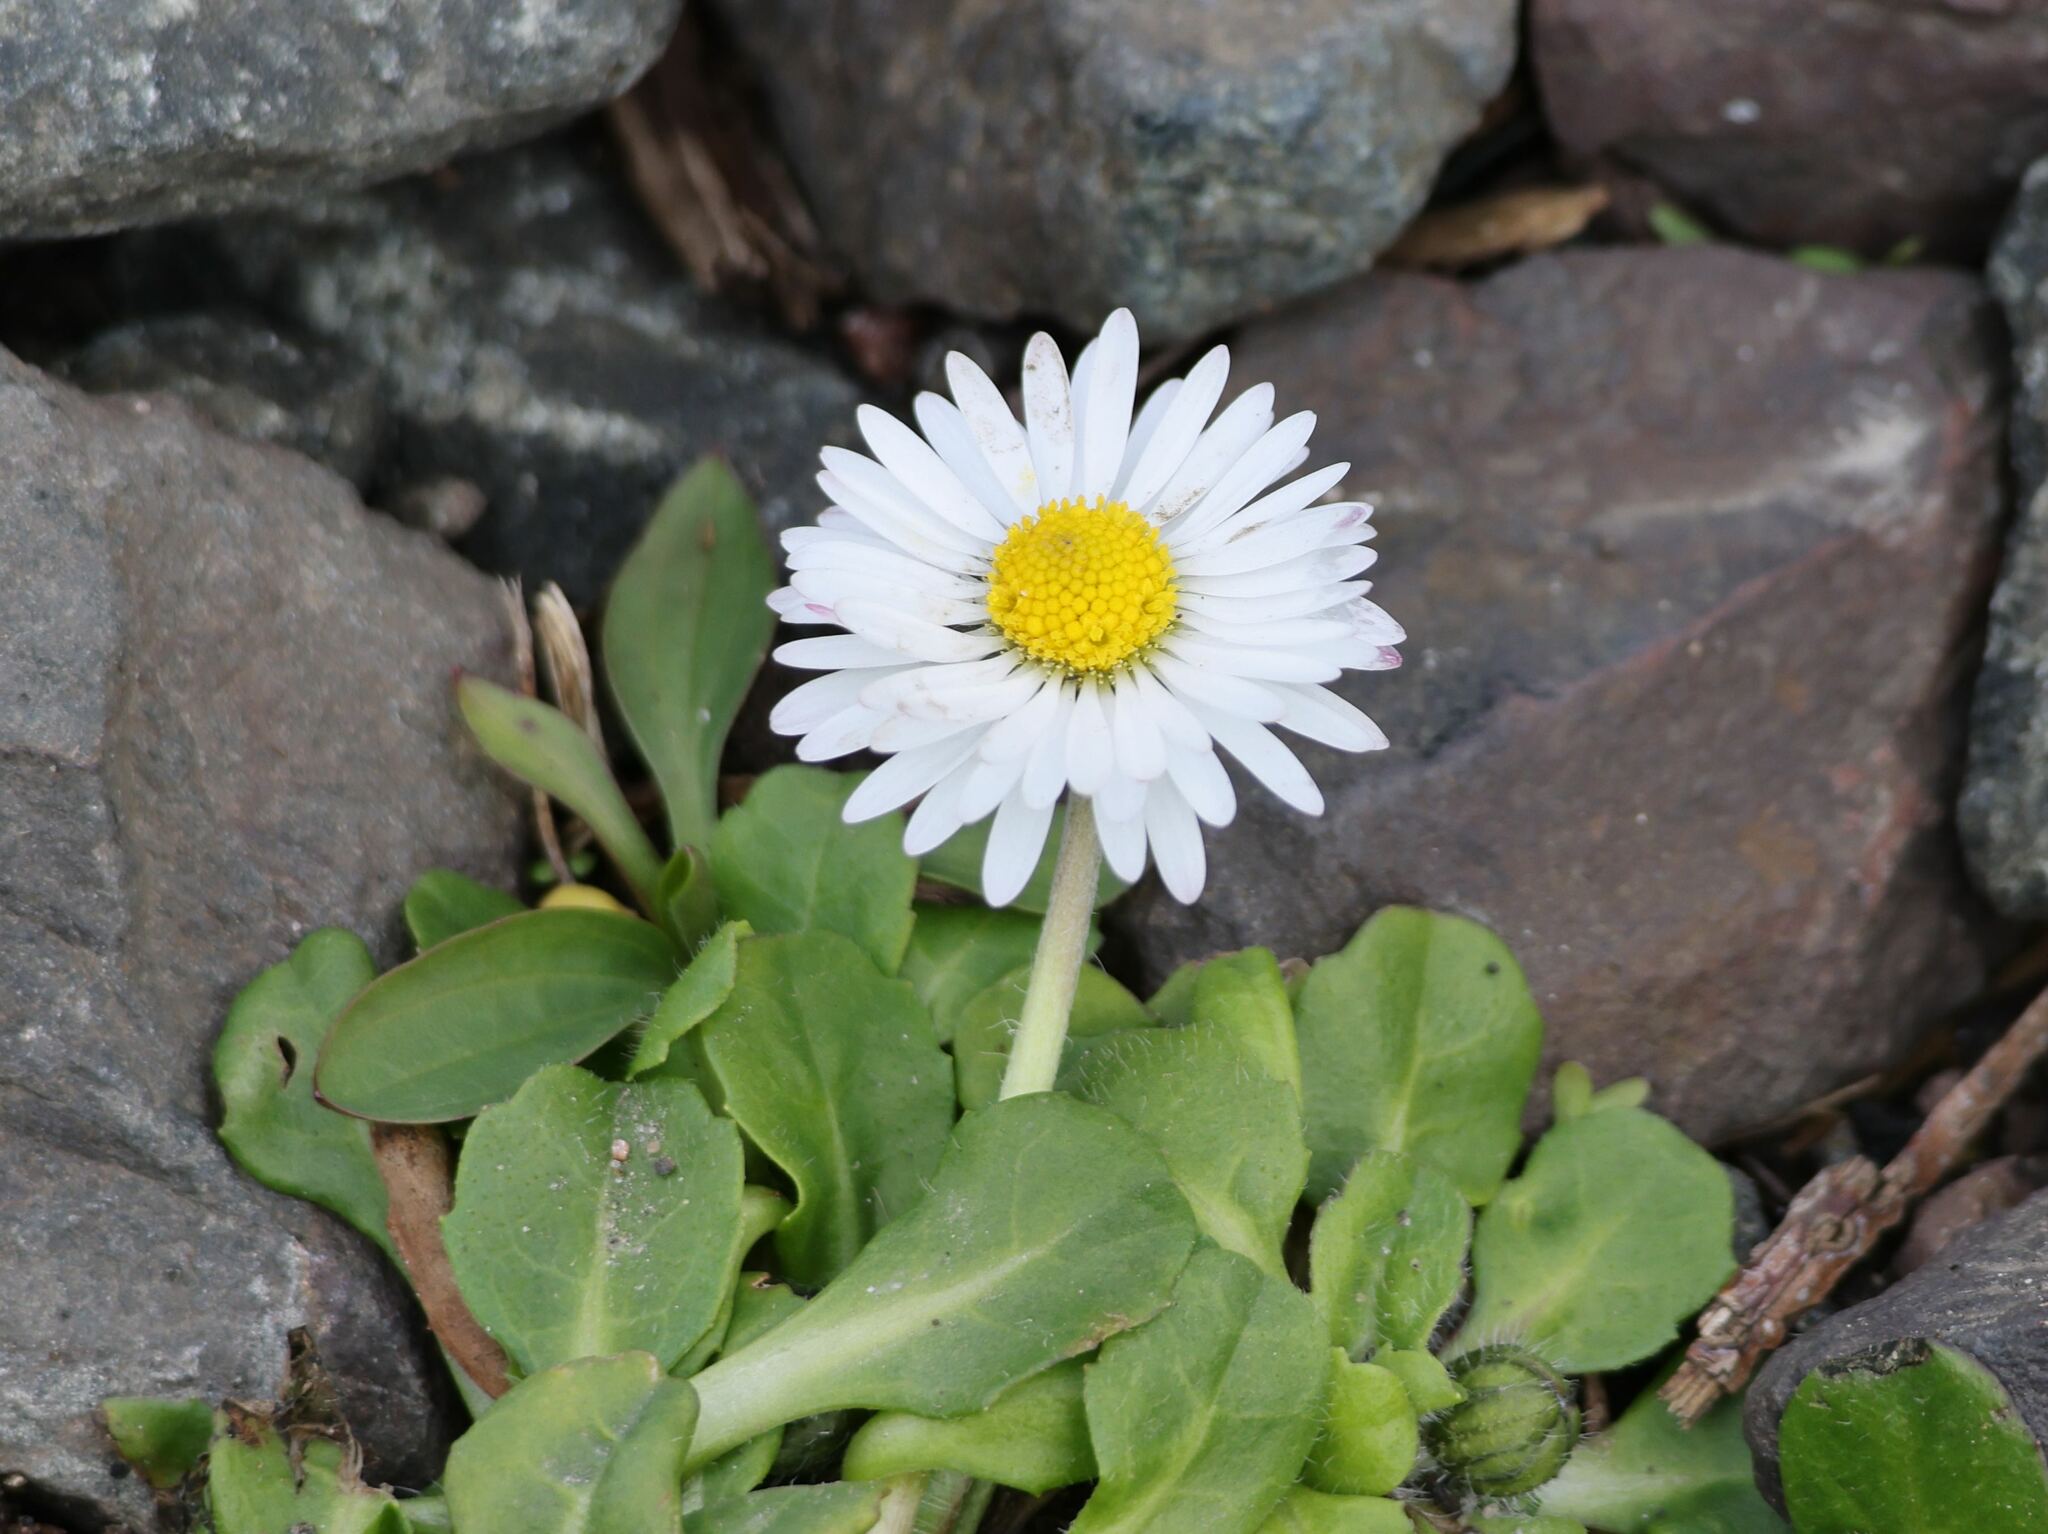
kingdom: Plantae
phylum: Tracheophyta
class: Magnoliopsida
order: Asterales
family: Asteraceae
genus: Bellis
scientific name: Bellis perennis
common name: Lawndaisy
